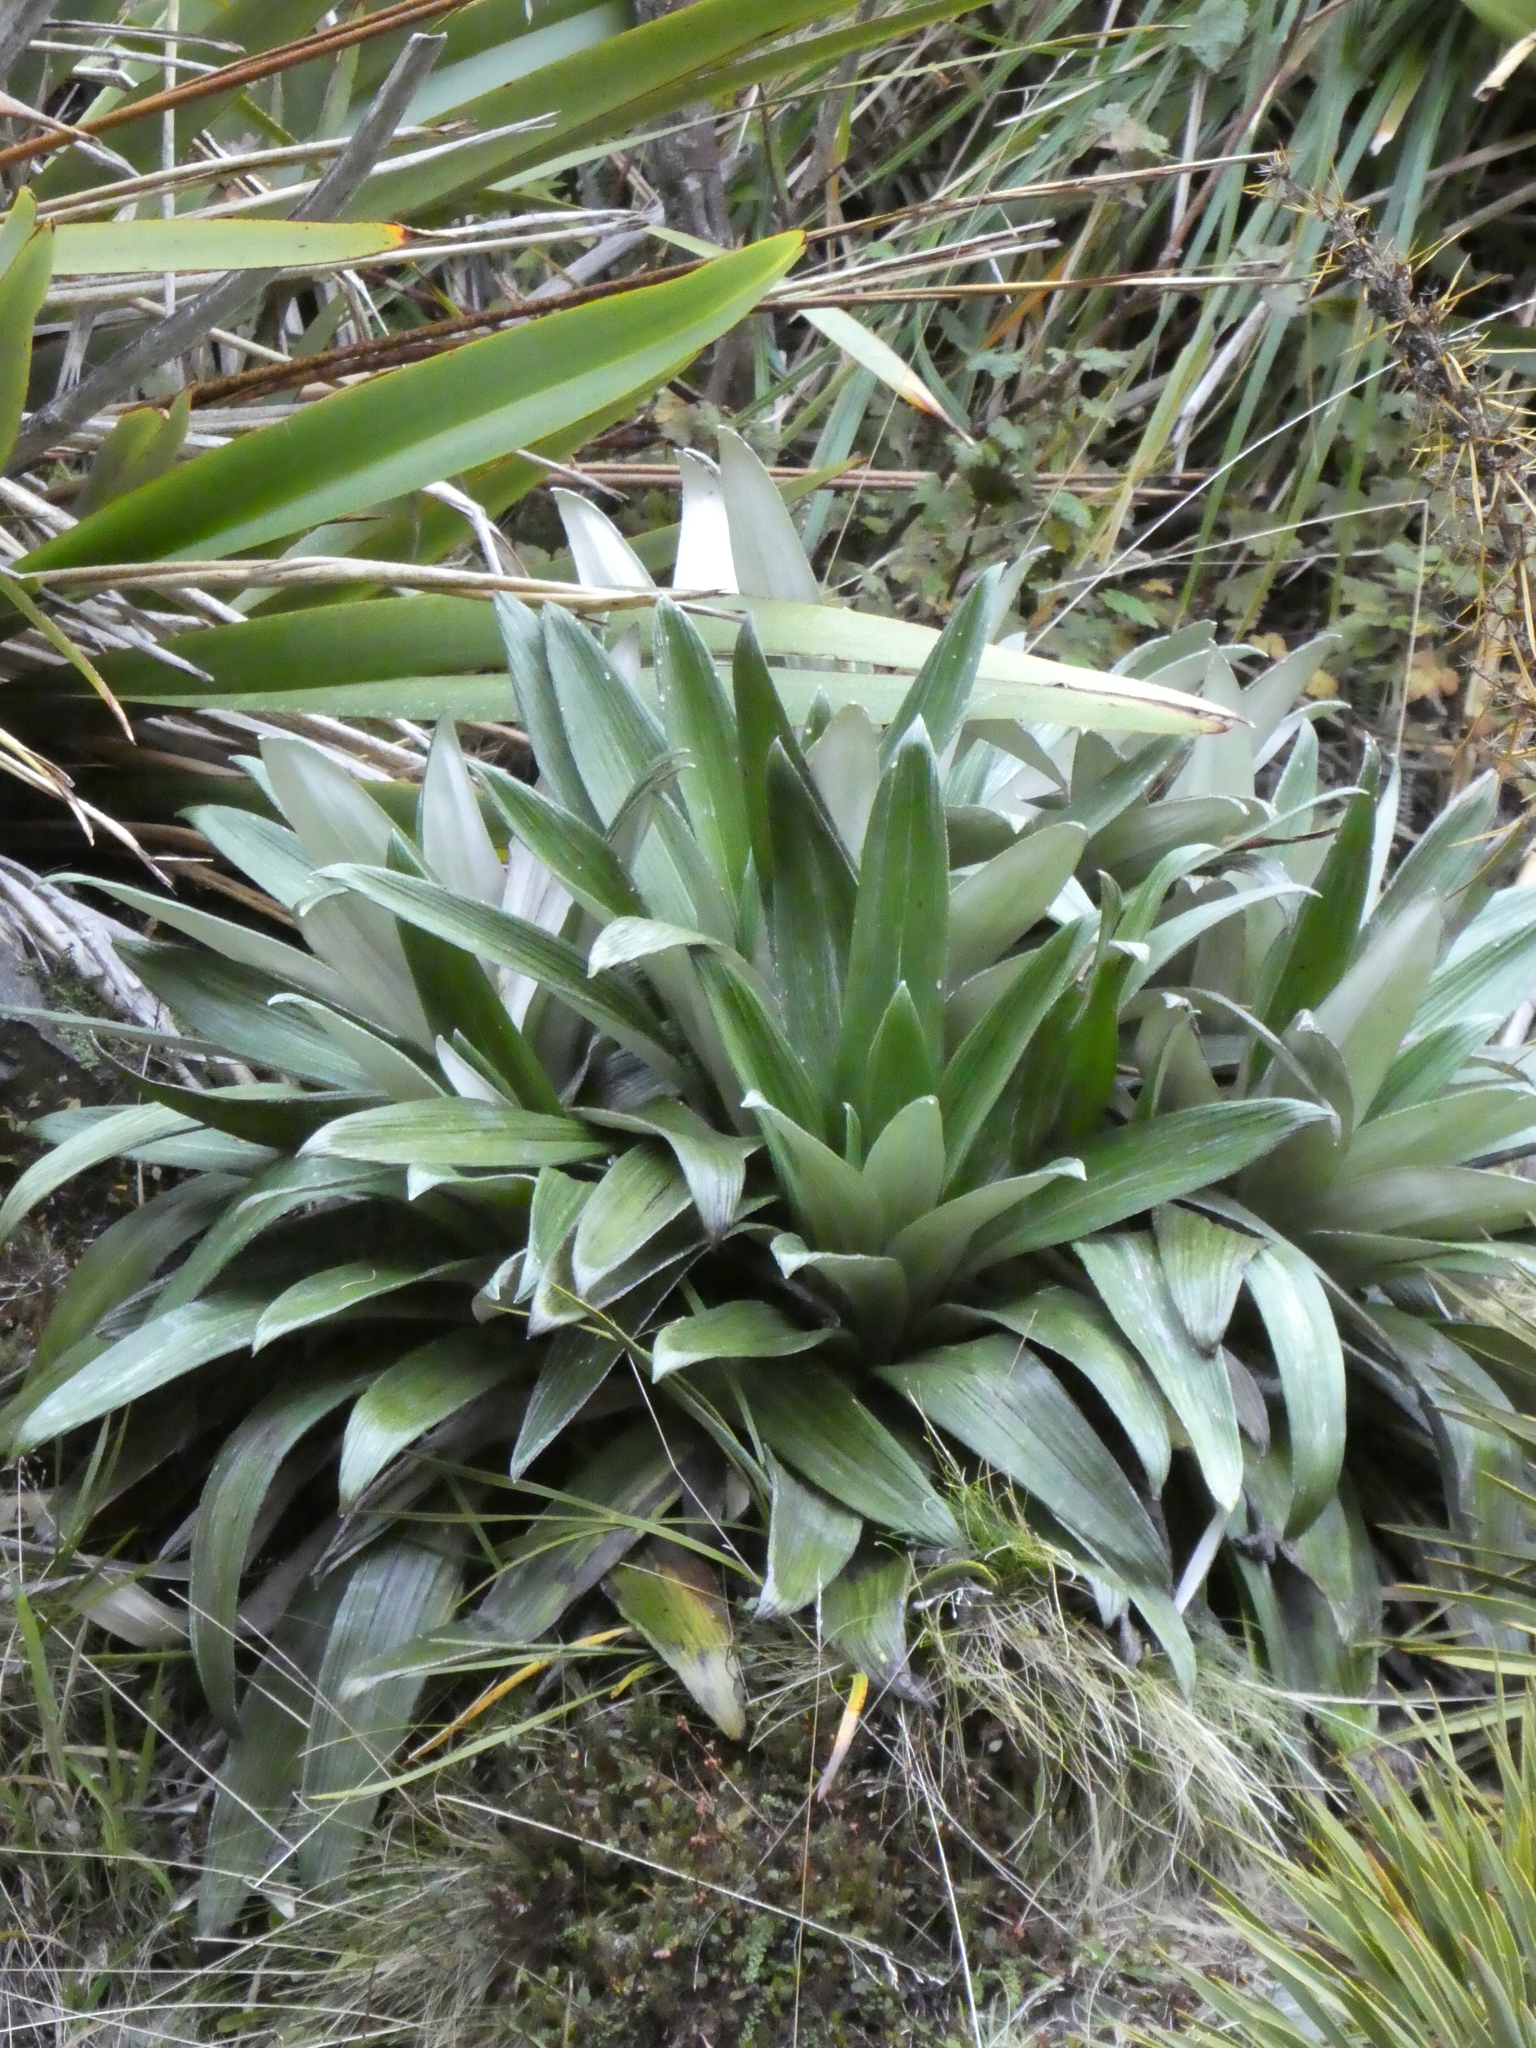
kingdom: Plantae
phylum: Tracheophyta
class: Magnoliopsida
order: Asterales
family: Asteraceae
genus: Celmisia
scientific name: Celmisia semicordata
